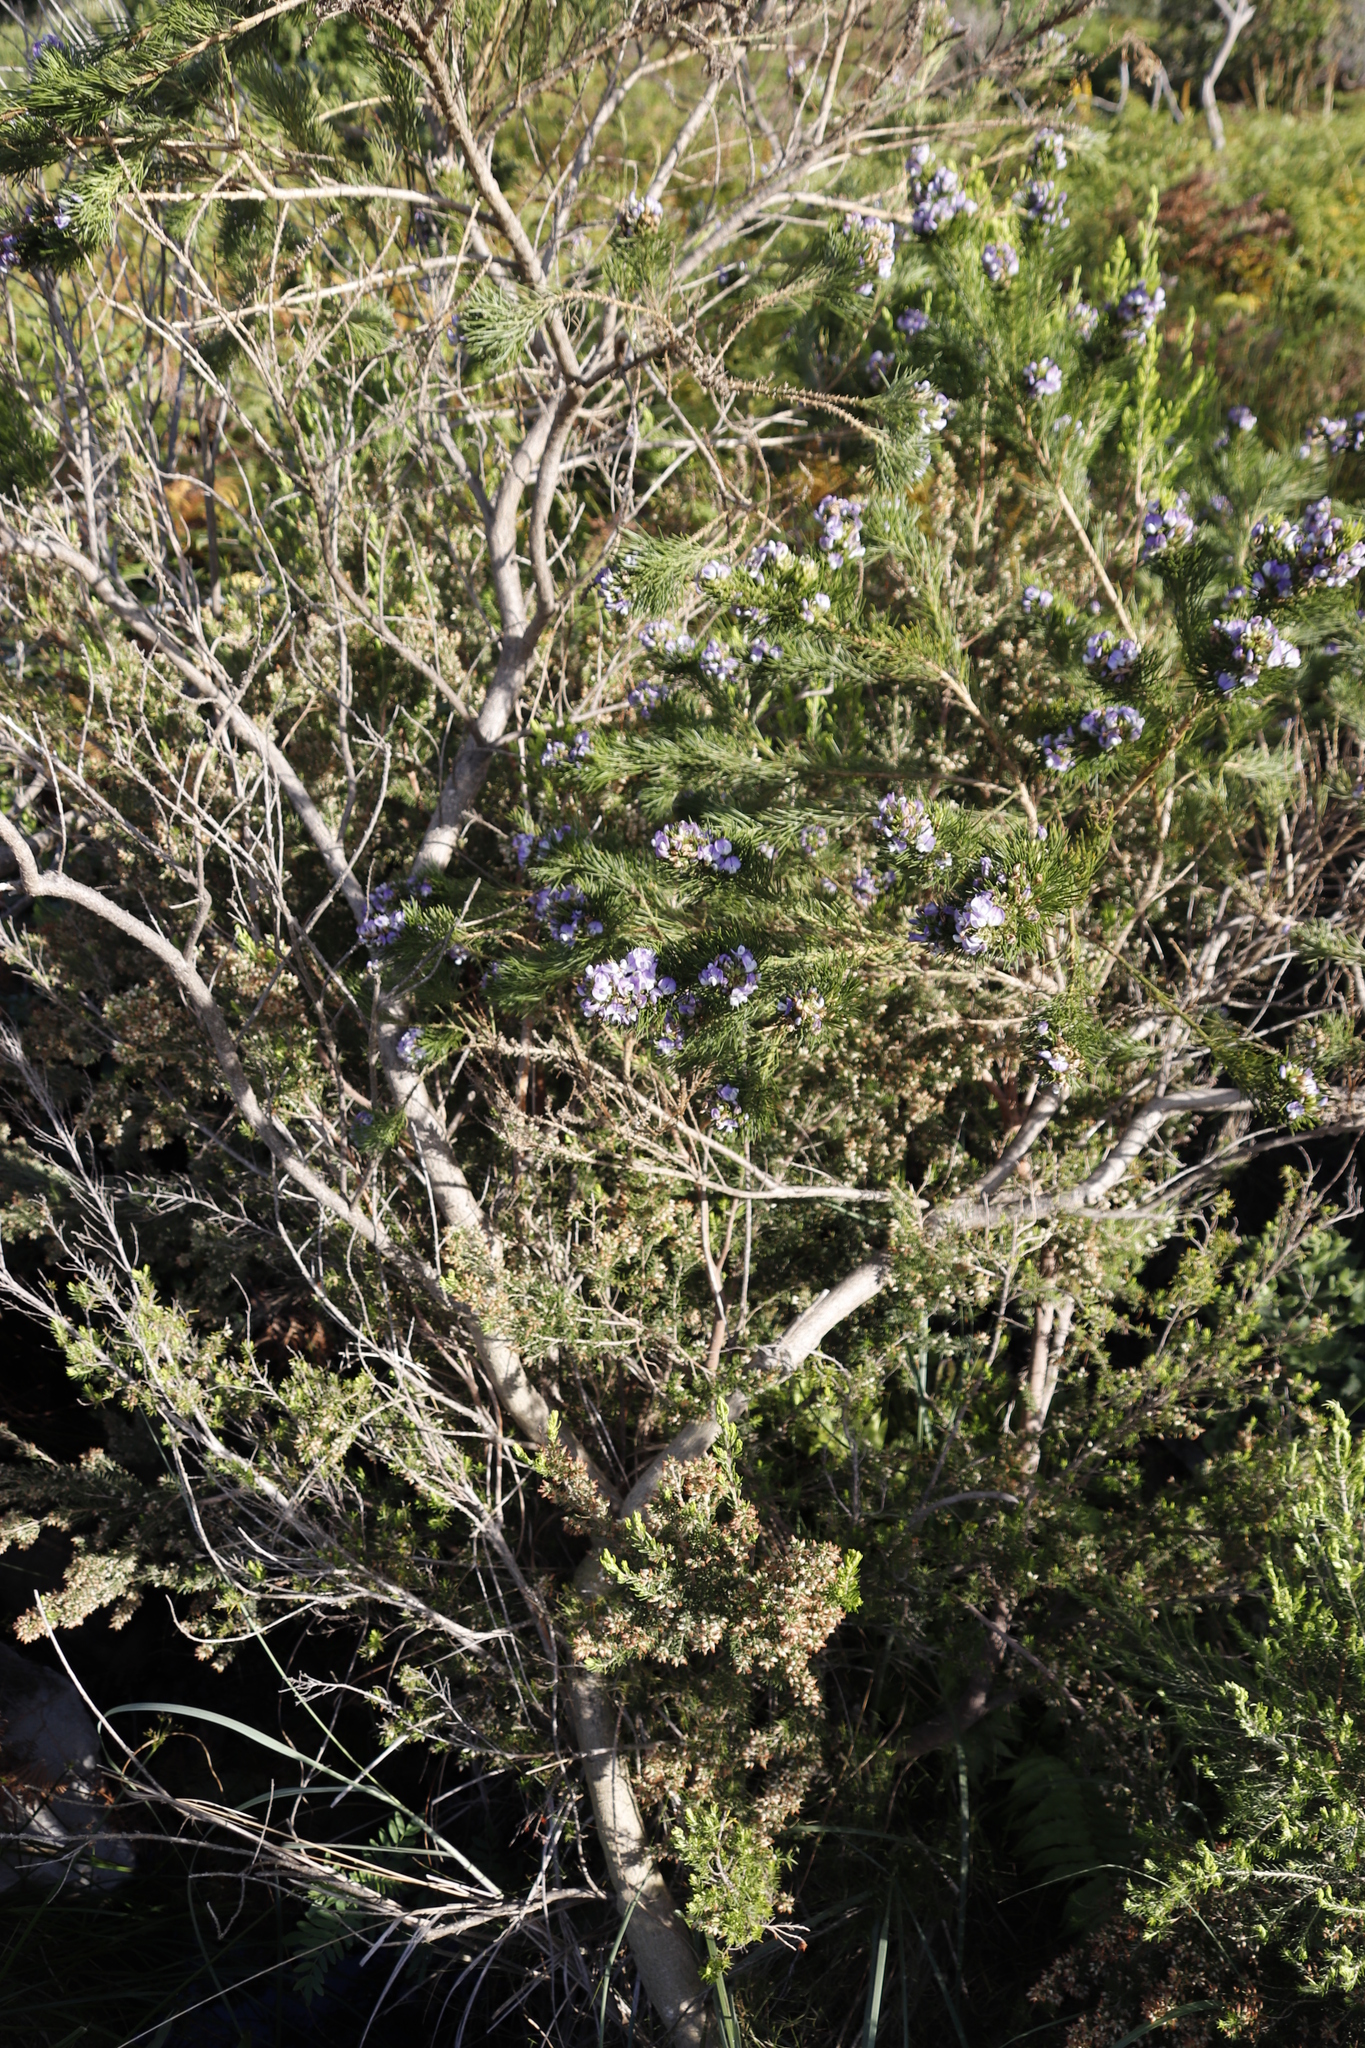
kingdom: Plantae
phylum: Tracheophyta
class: Magnoliopsida
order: Fabales
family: Fabaceae
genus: Psoralea
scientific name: Psoralea pinnata
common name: African scurfpea
